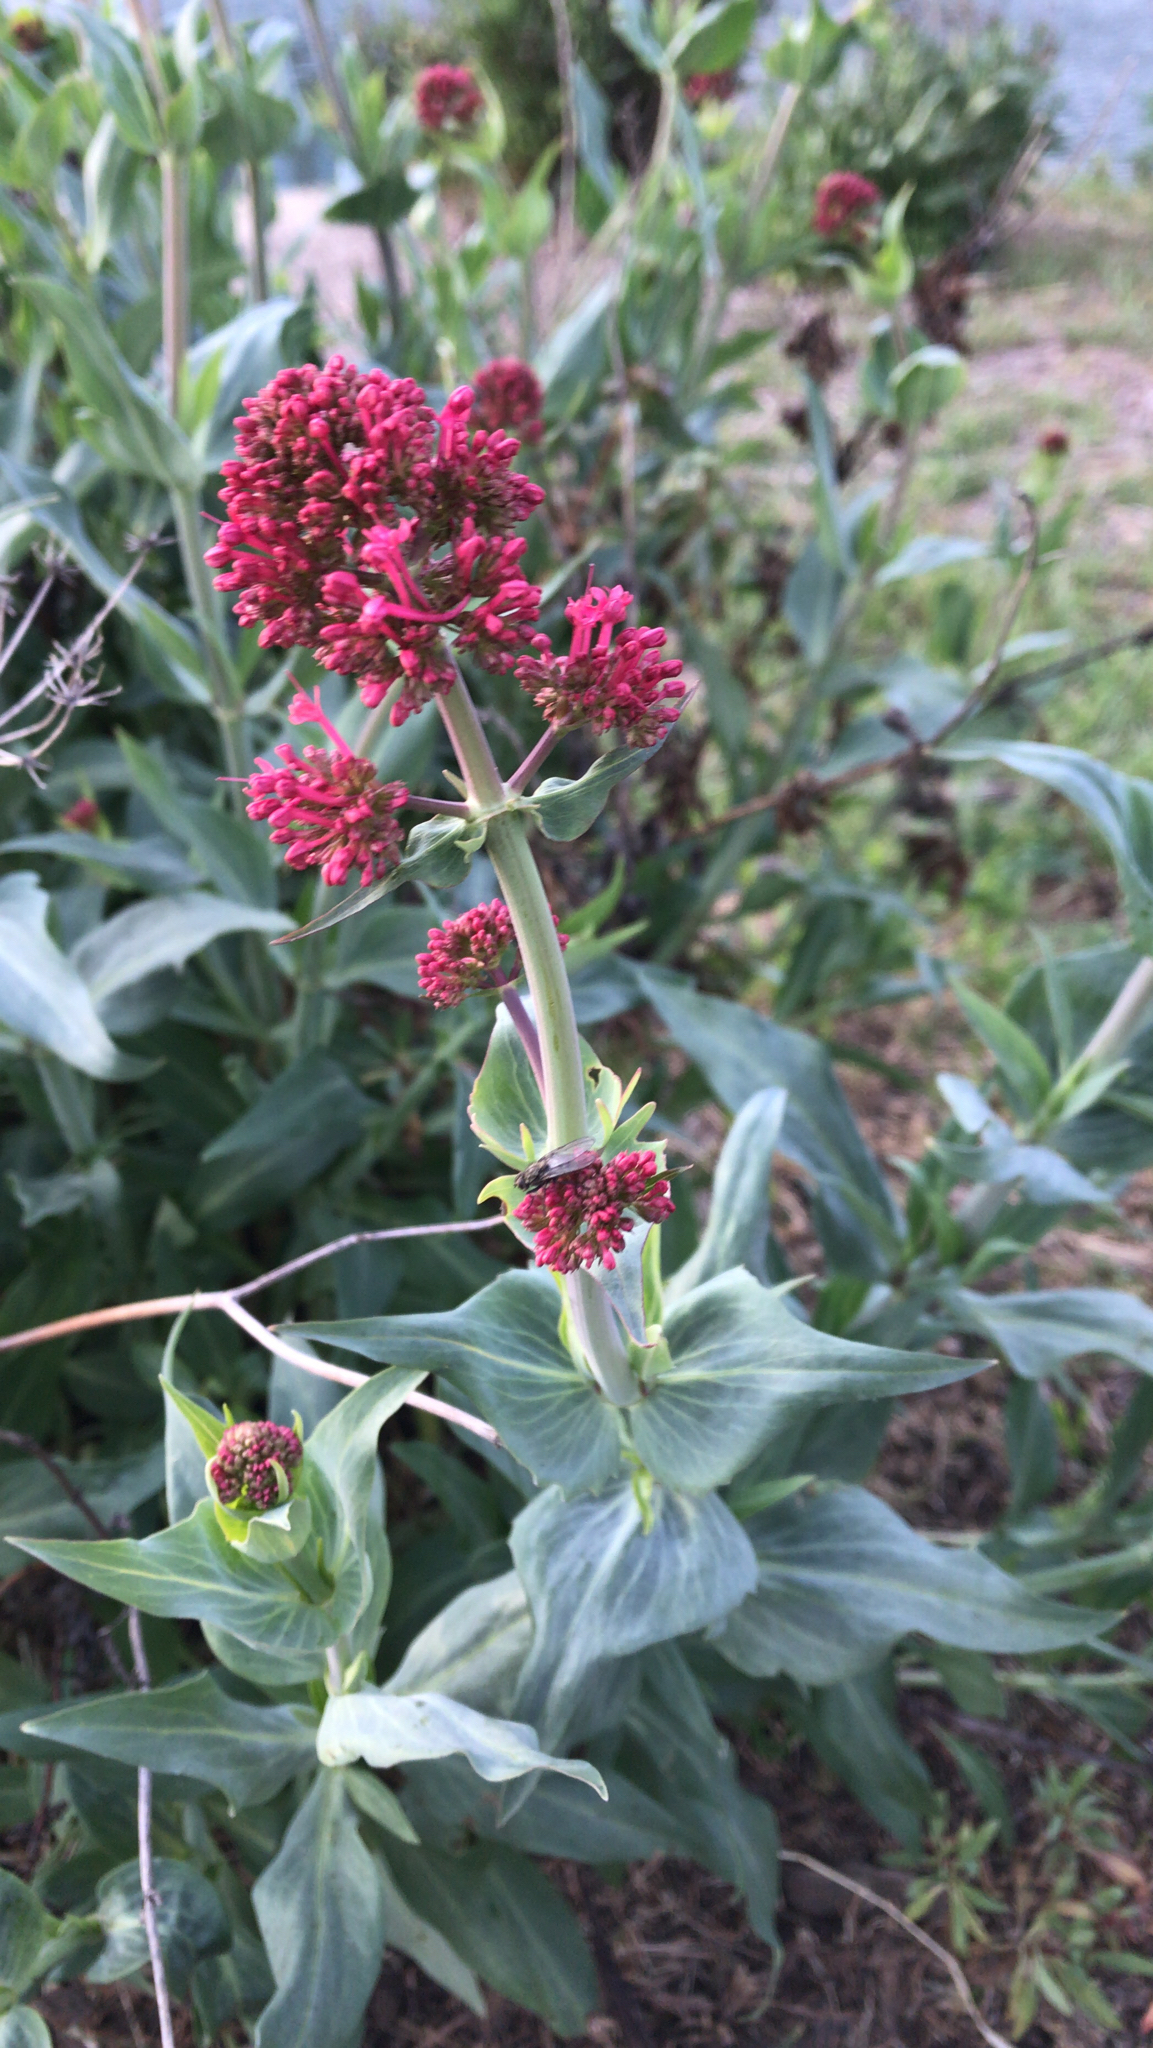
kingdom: Plantae
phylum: Tracheophyta
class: Magnoliopsida
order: Dipsacales
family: Caprifoliaceae
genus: Centranthus
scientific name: Centranthus ruber
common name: Red valerian
